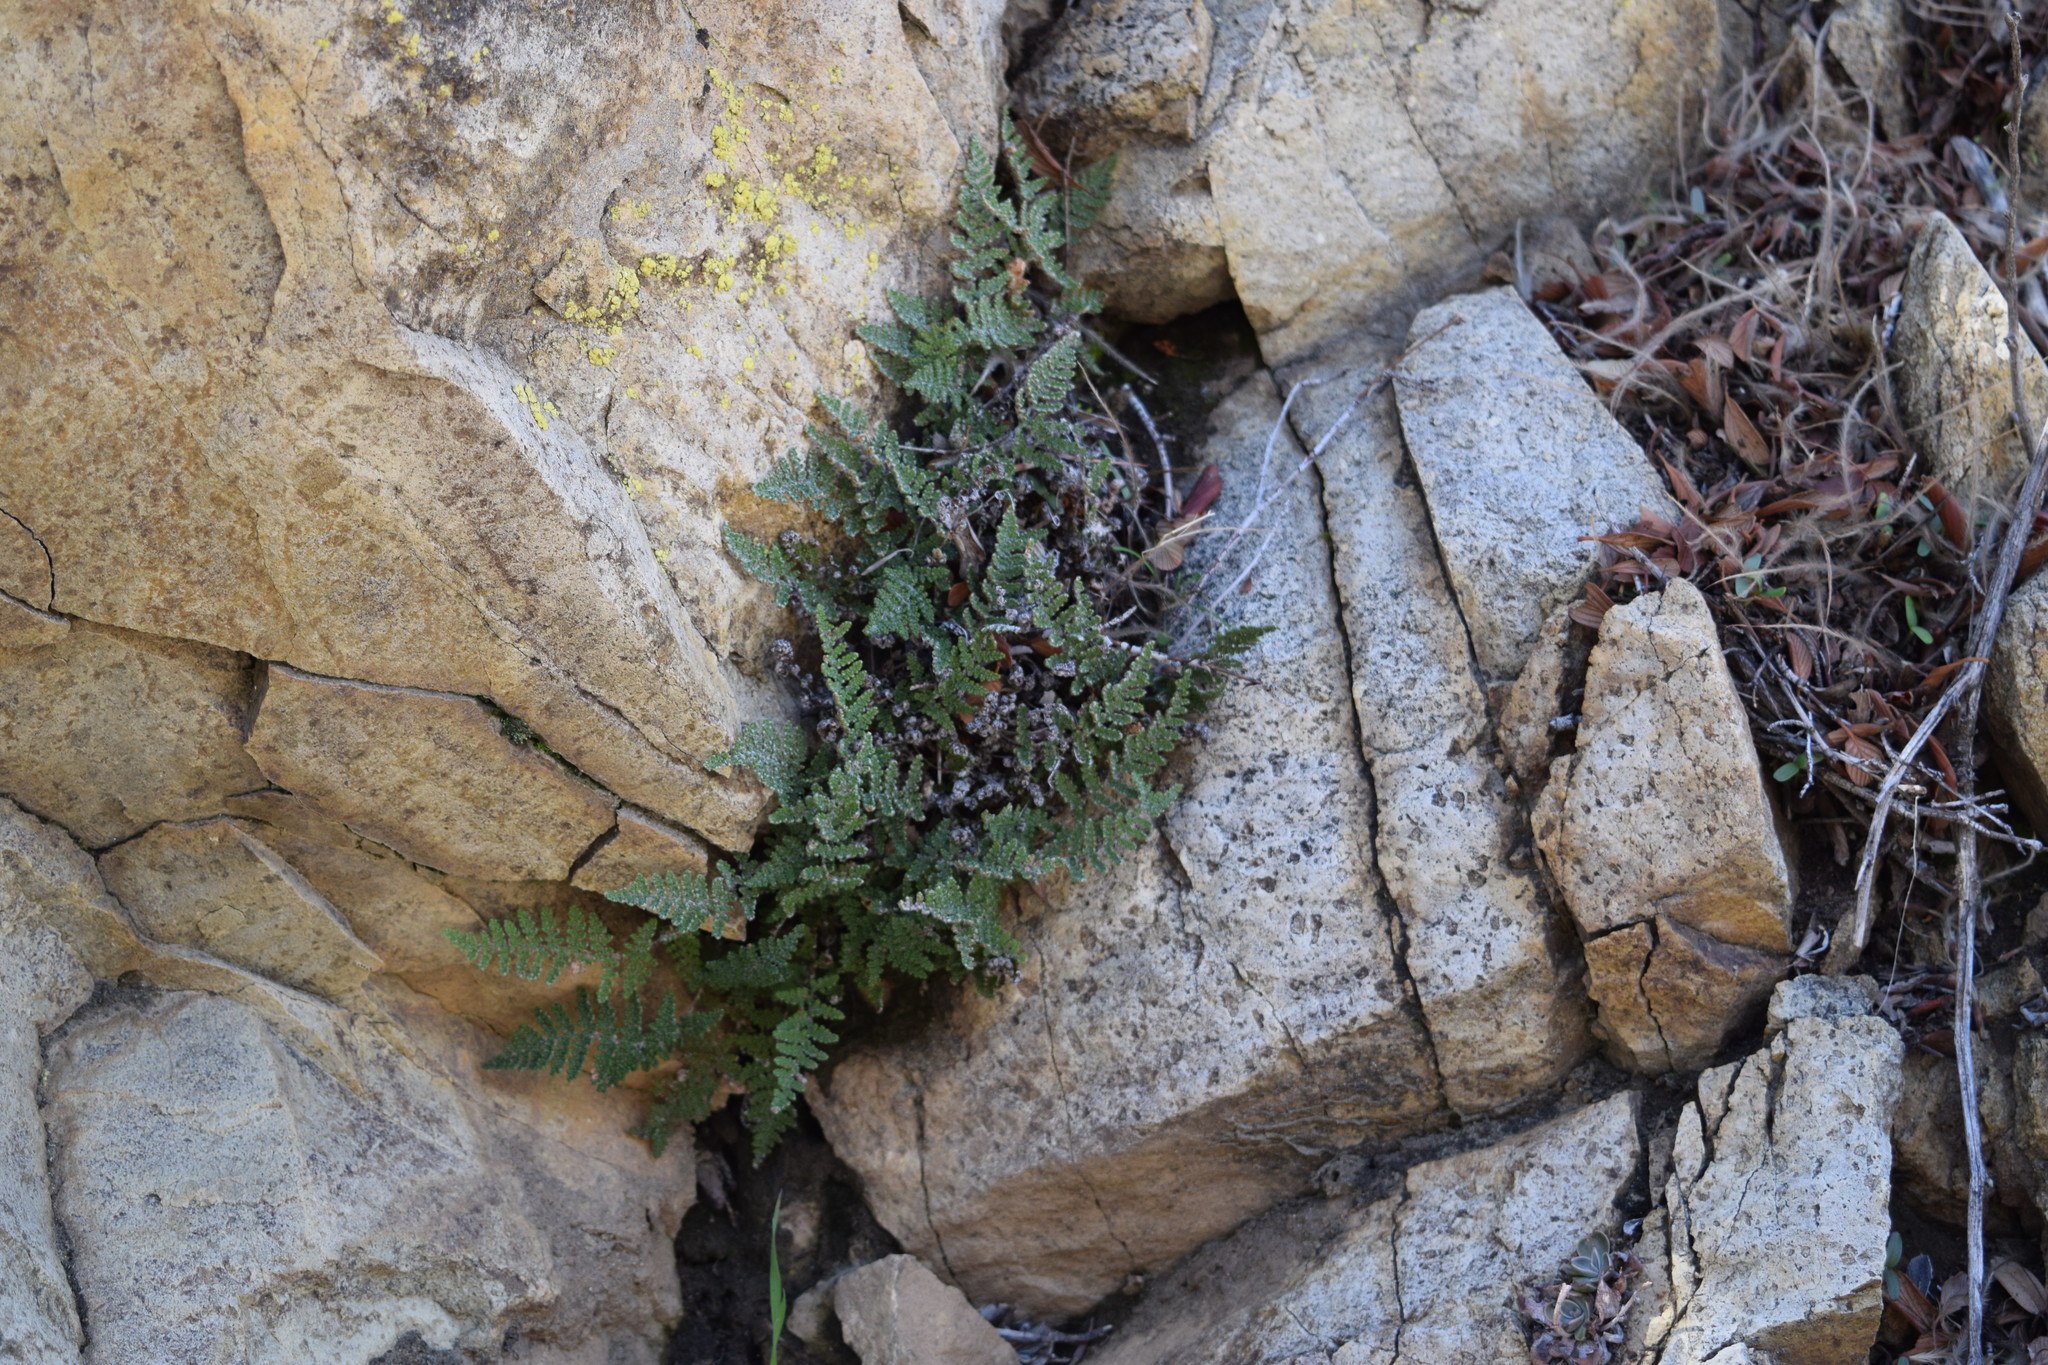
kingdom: Plantae
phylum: Tracheophyta
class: Polypodiopsida
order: Polypodiales
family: Pteridaceae
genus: Myriopteris
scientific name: Myriopteris covillei
